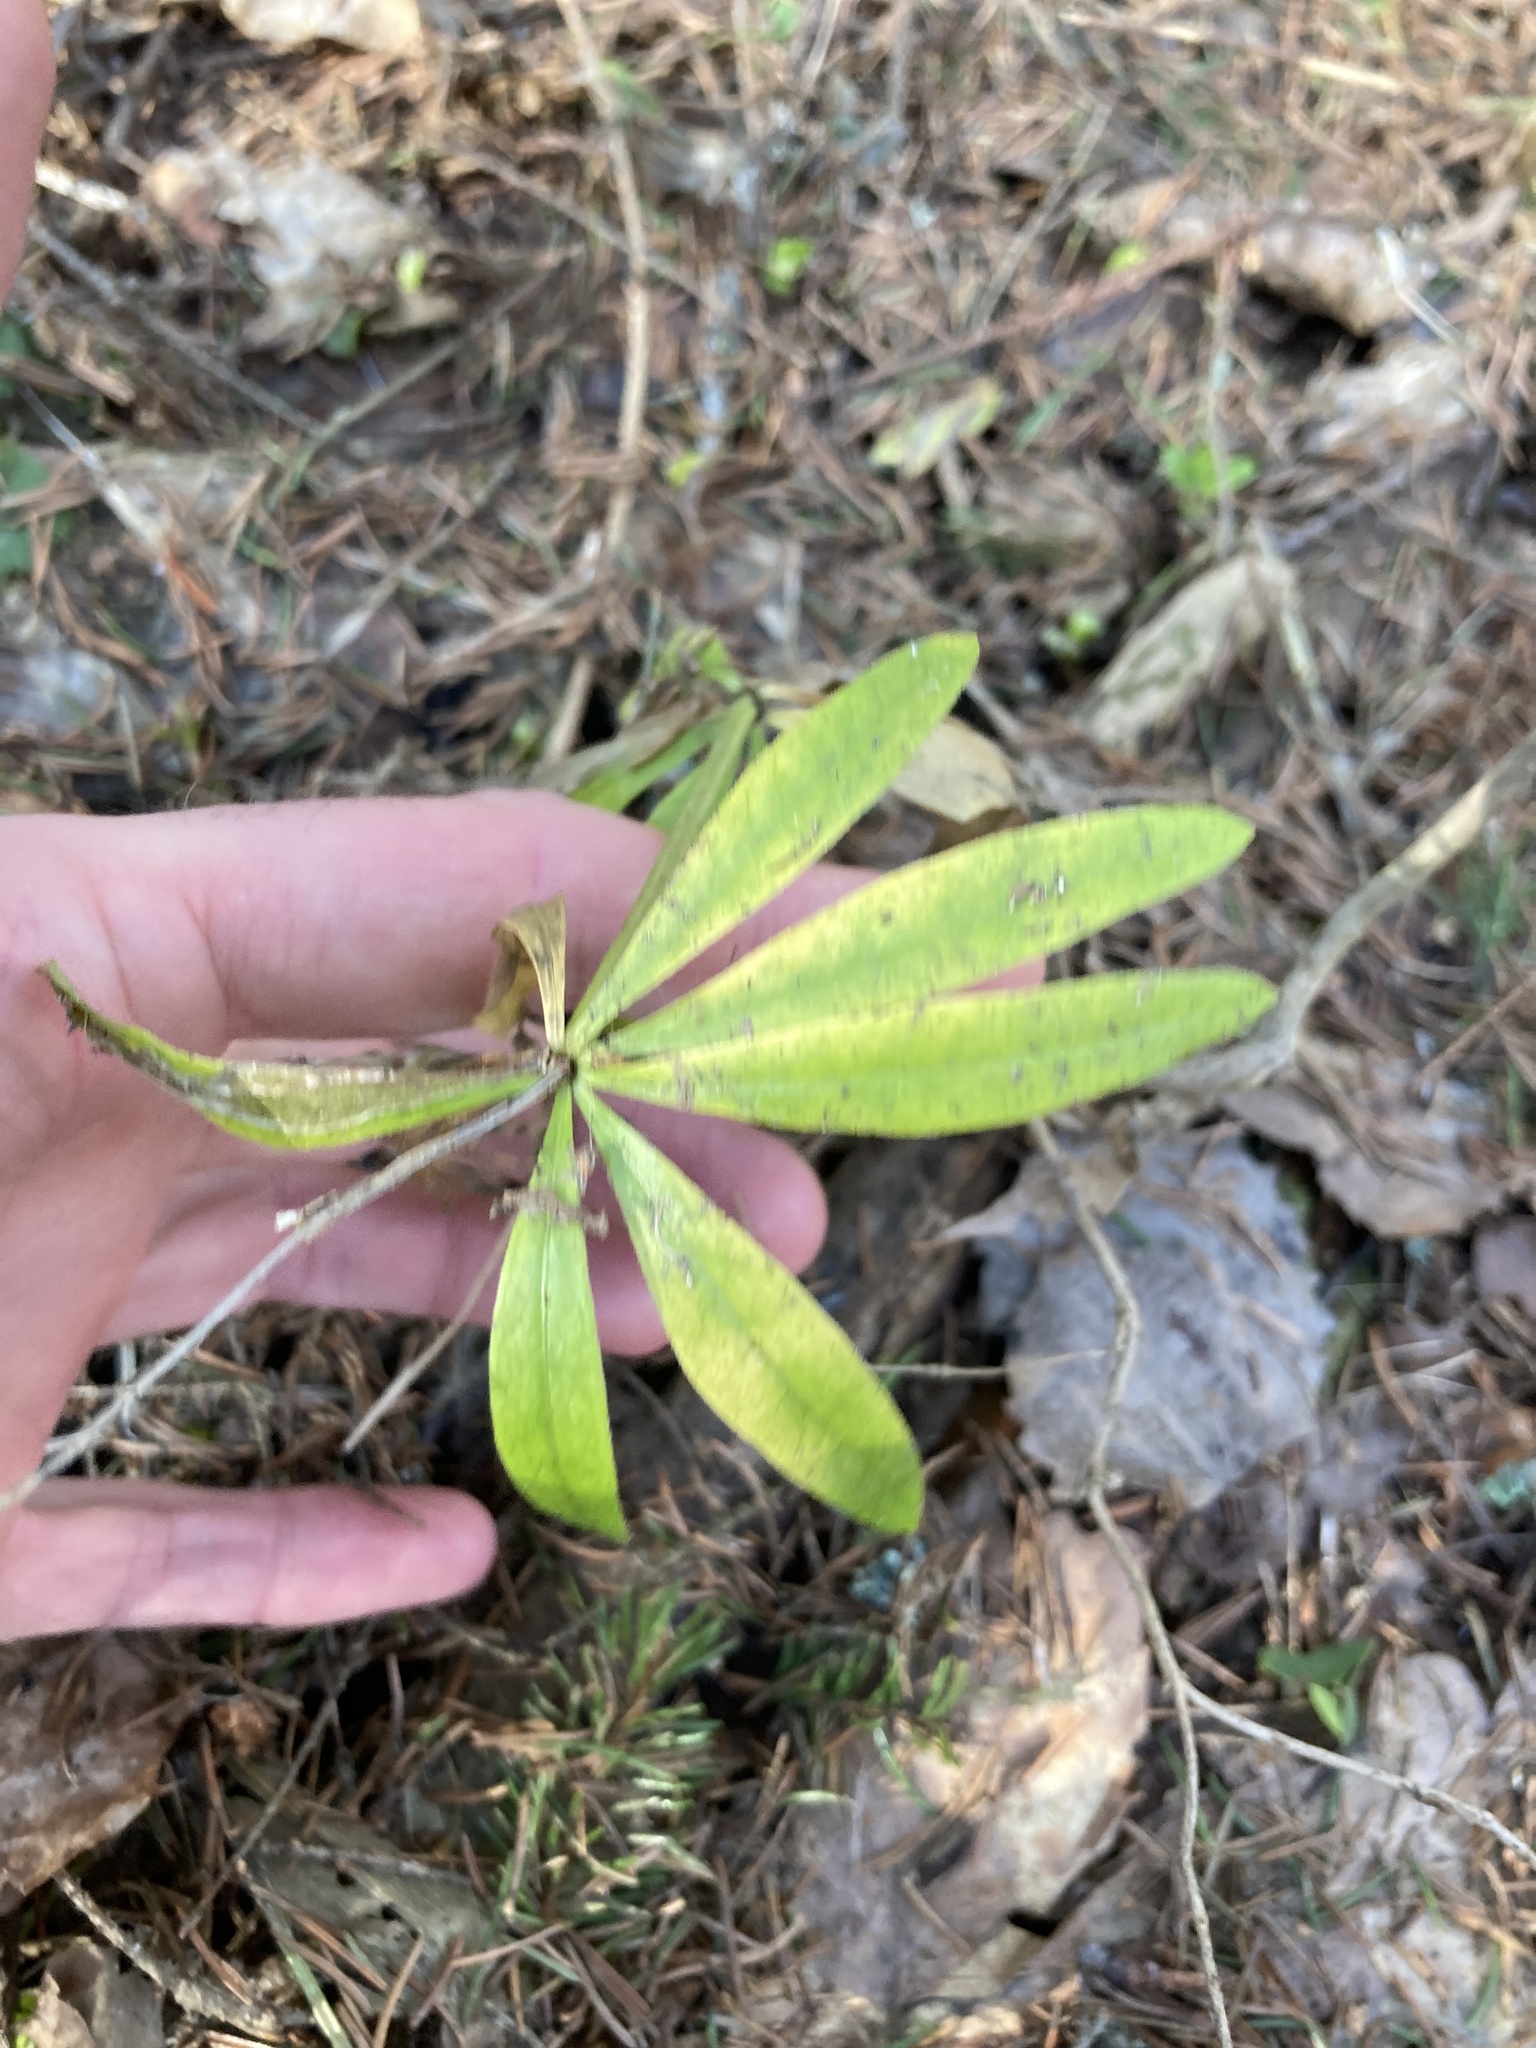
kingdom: Plantae
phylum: Tracheophyta
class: Magnoliopsida
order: Gentianales
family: Rubiaceae
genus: Galium
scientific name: Galium odoratum
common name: Sweet woodruff
